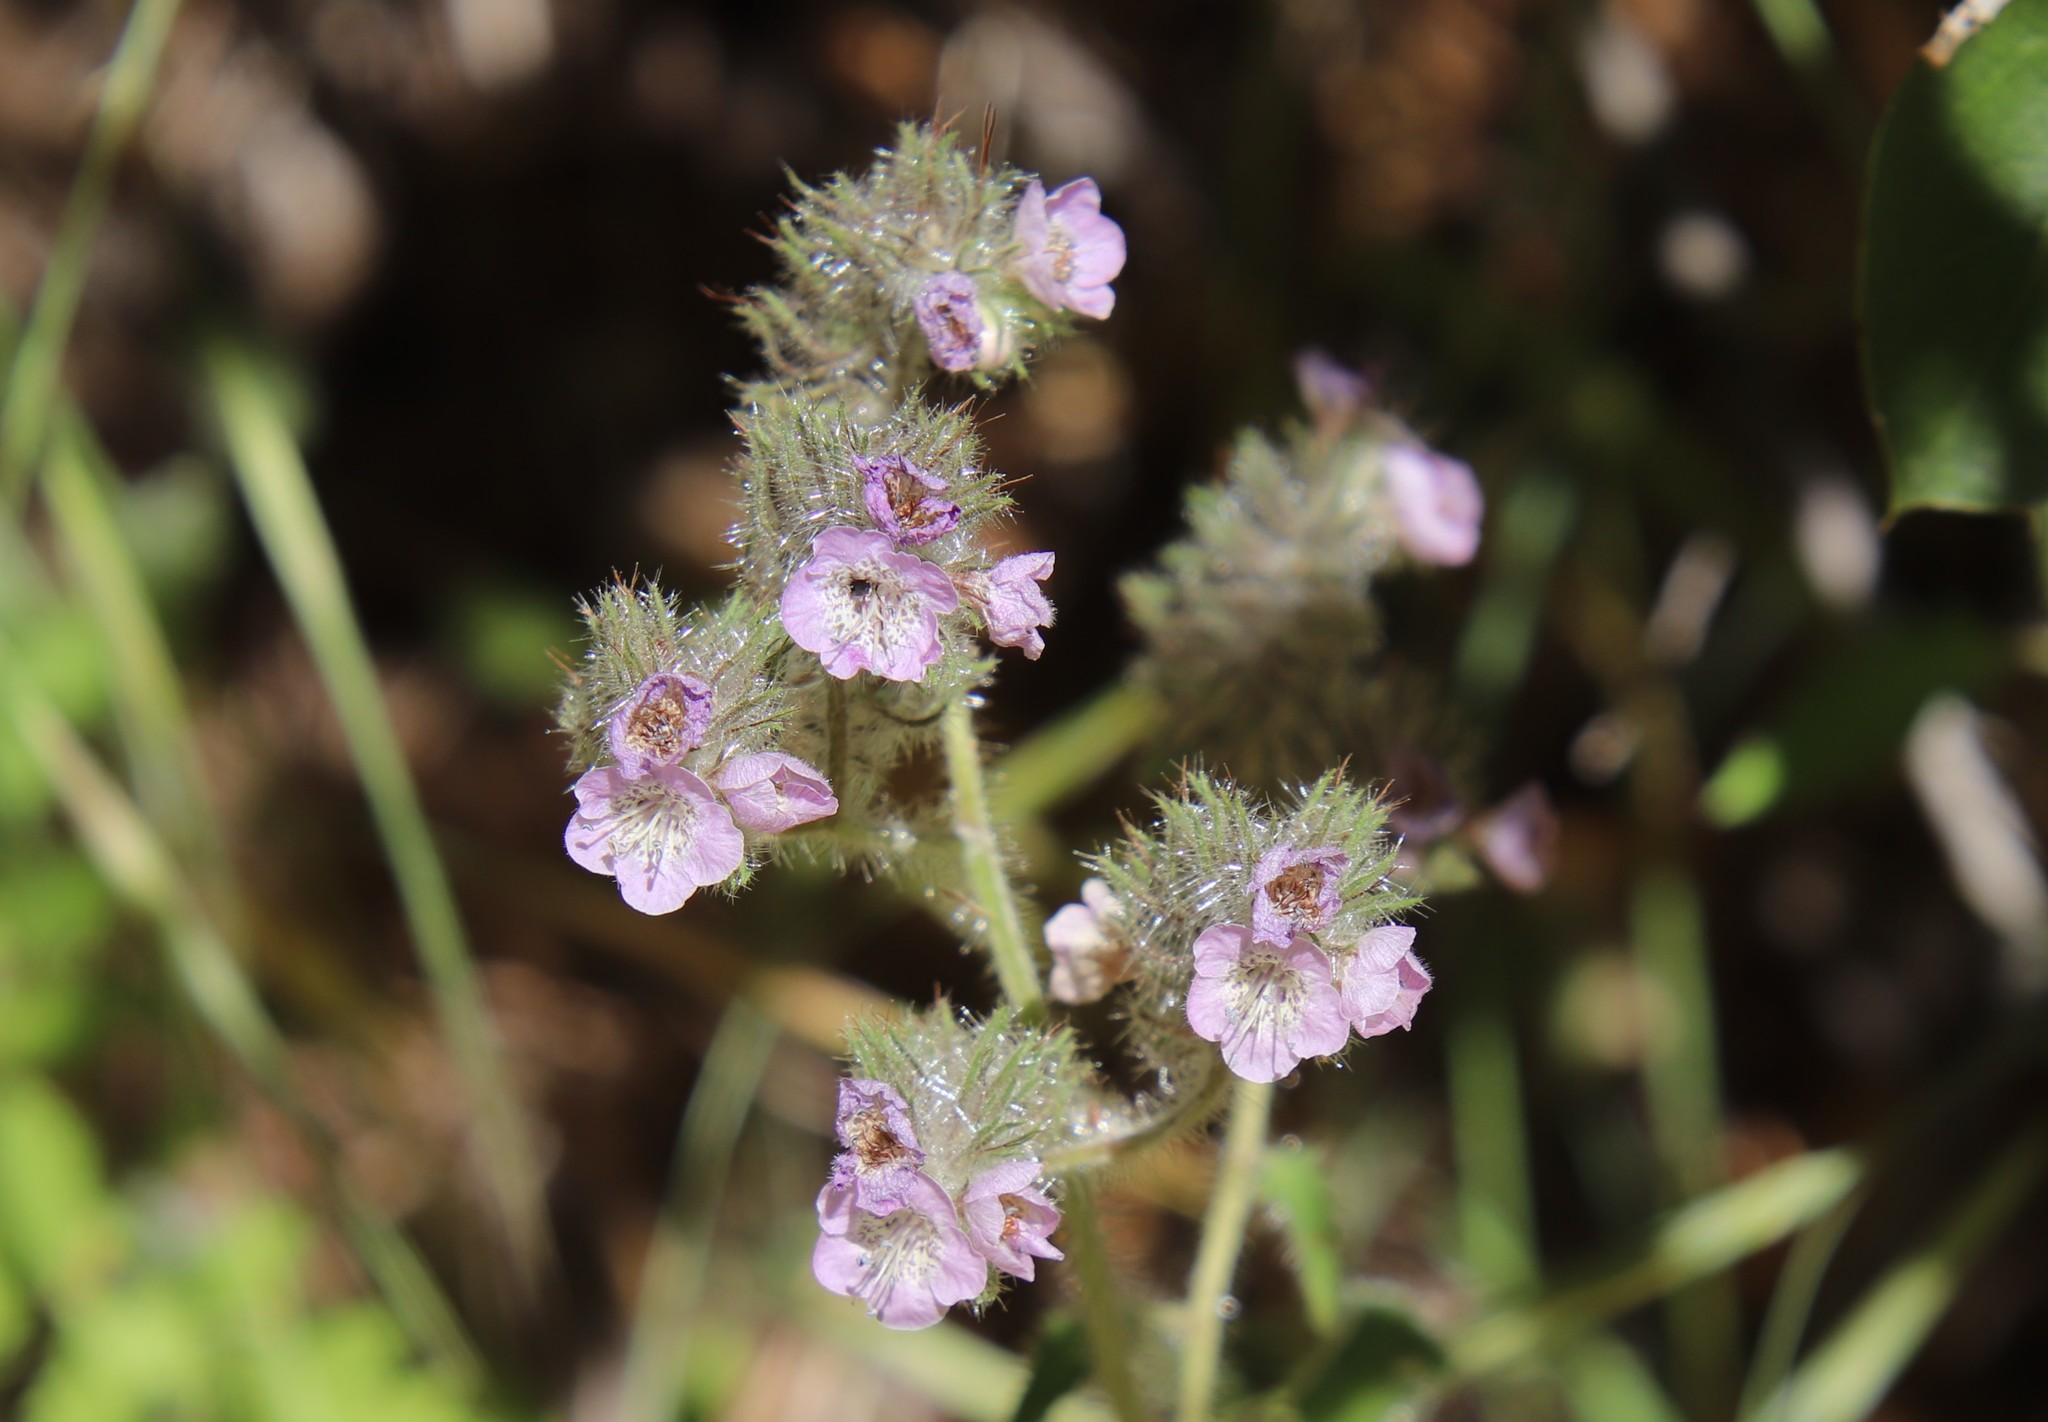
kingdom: Plantae
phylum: Tracheophyta
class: Magnoliopsida
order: Boraginales
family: Hydrophyllaceae
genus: Phacelia
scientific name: Phacelia cicutaria
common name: Caterpillar phacelia
